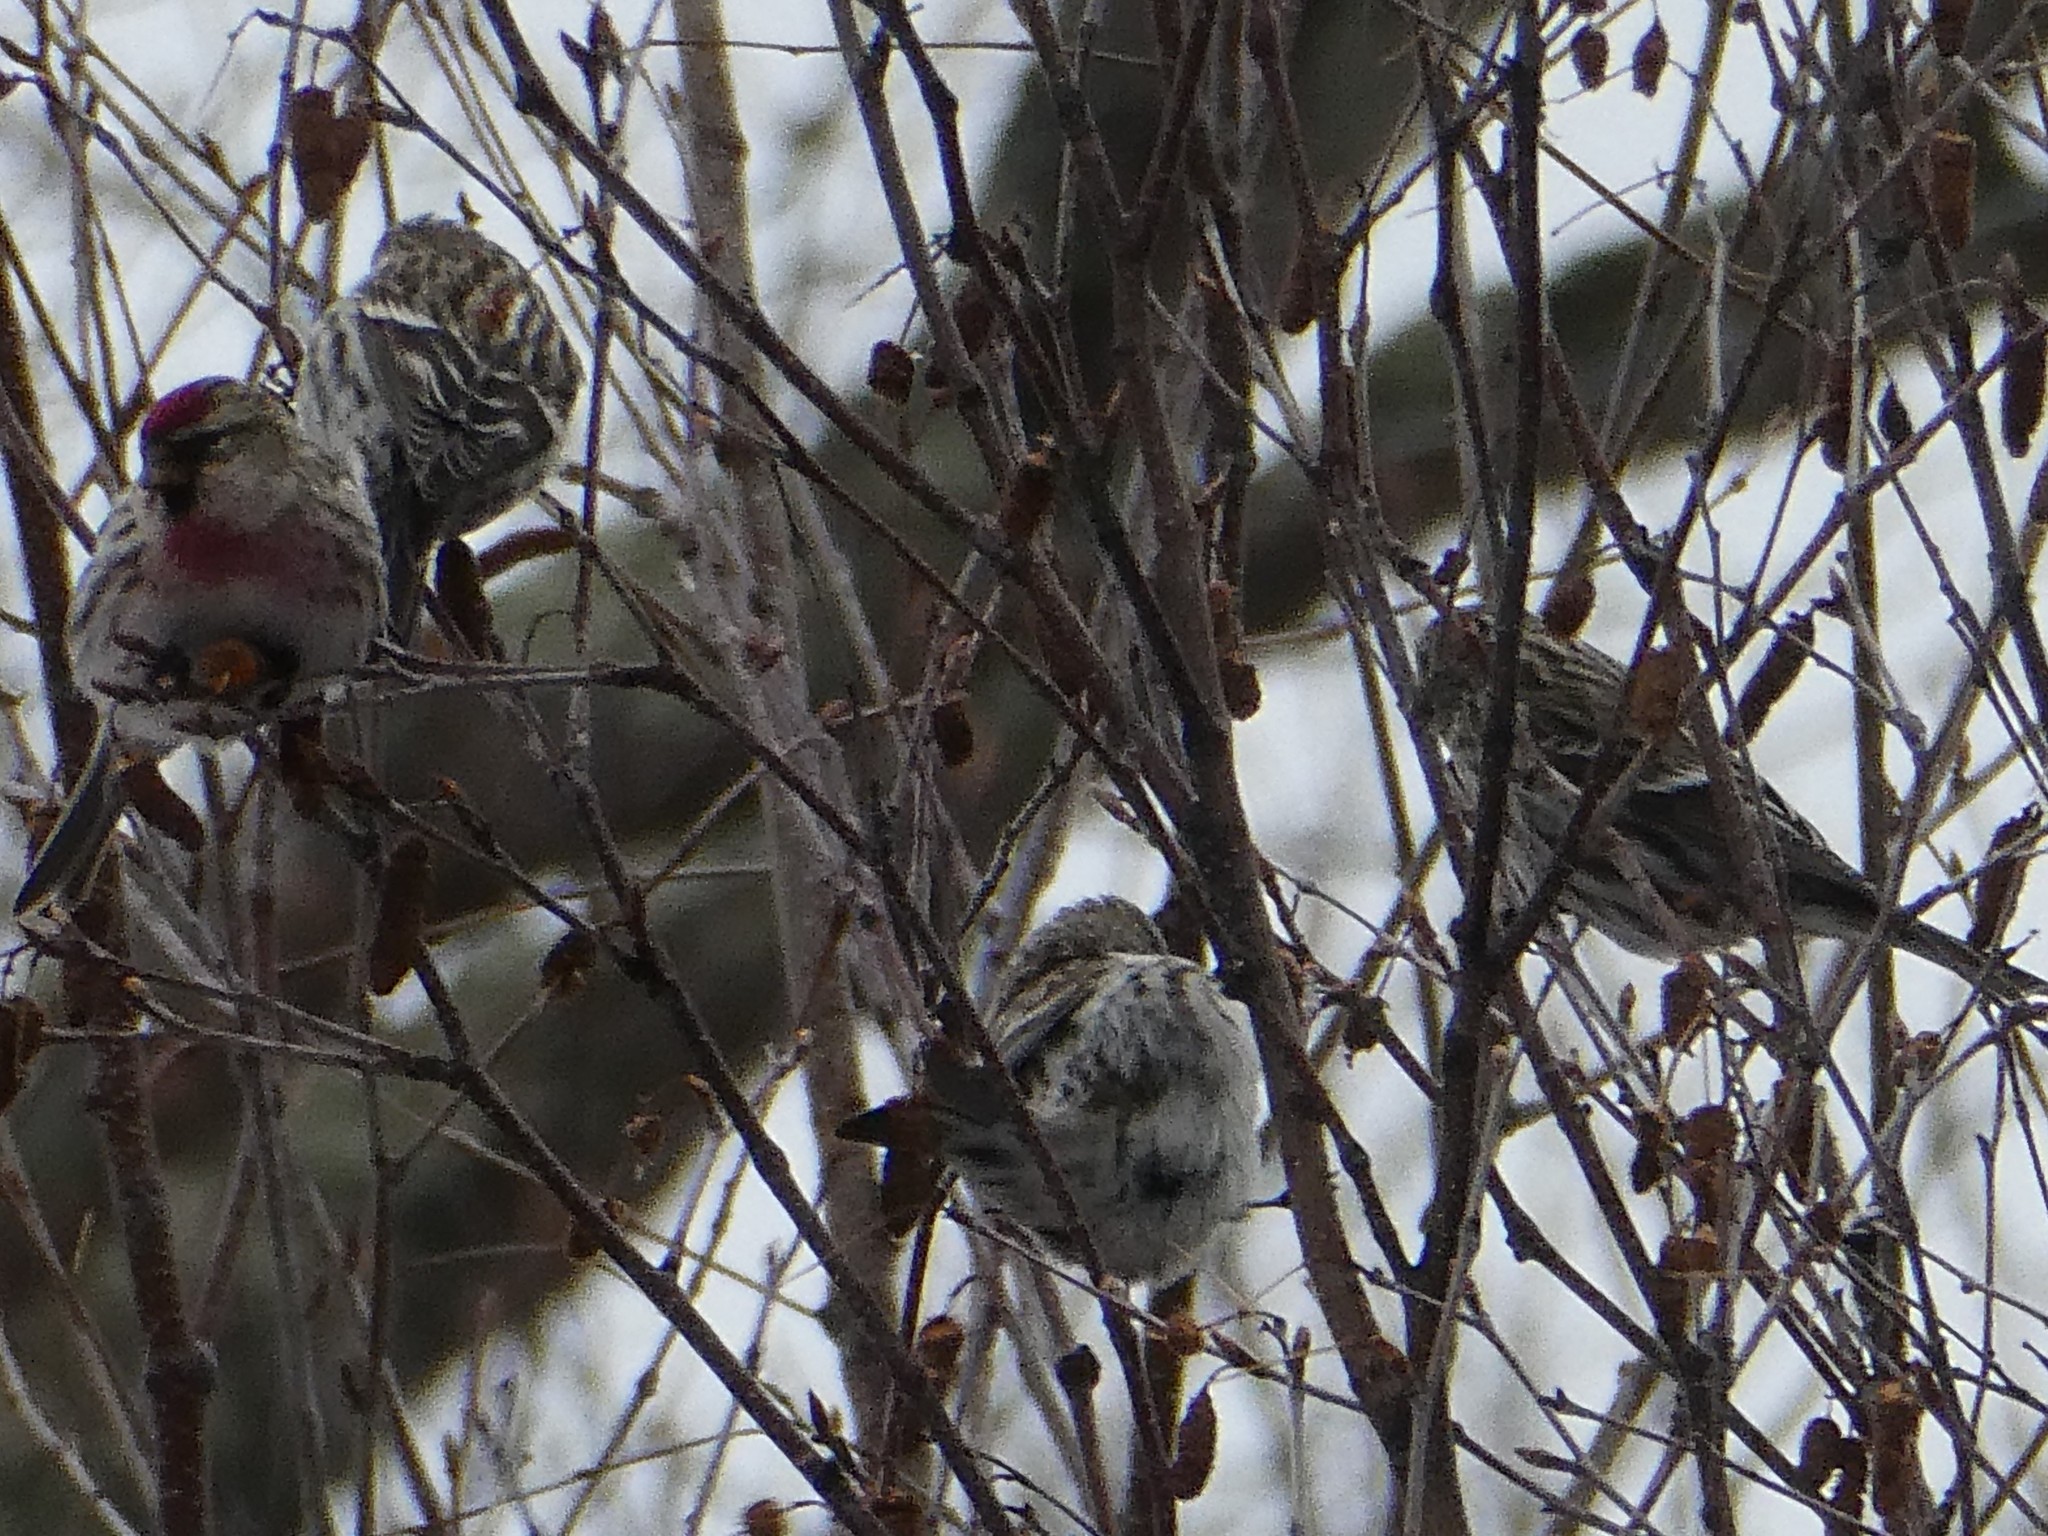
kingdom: Animalia
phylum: Chordata
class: Aves
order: Passeriformes
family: Fringillidae
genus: Acanthis
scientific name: Acanthis flammea
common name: Common redpoll
